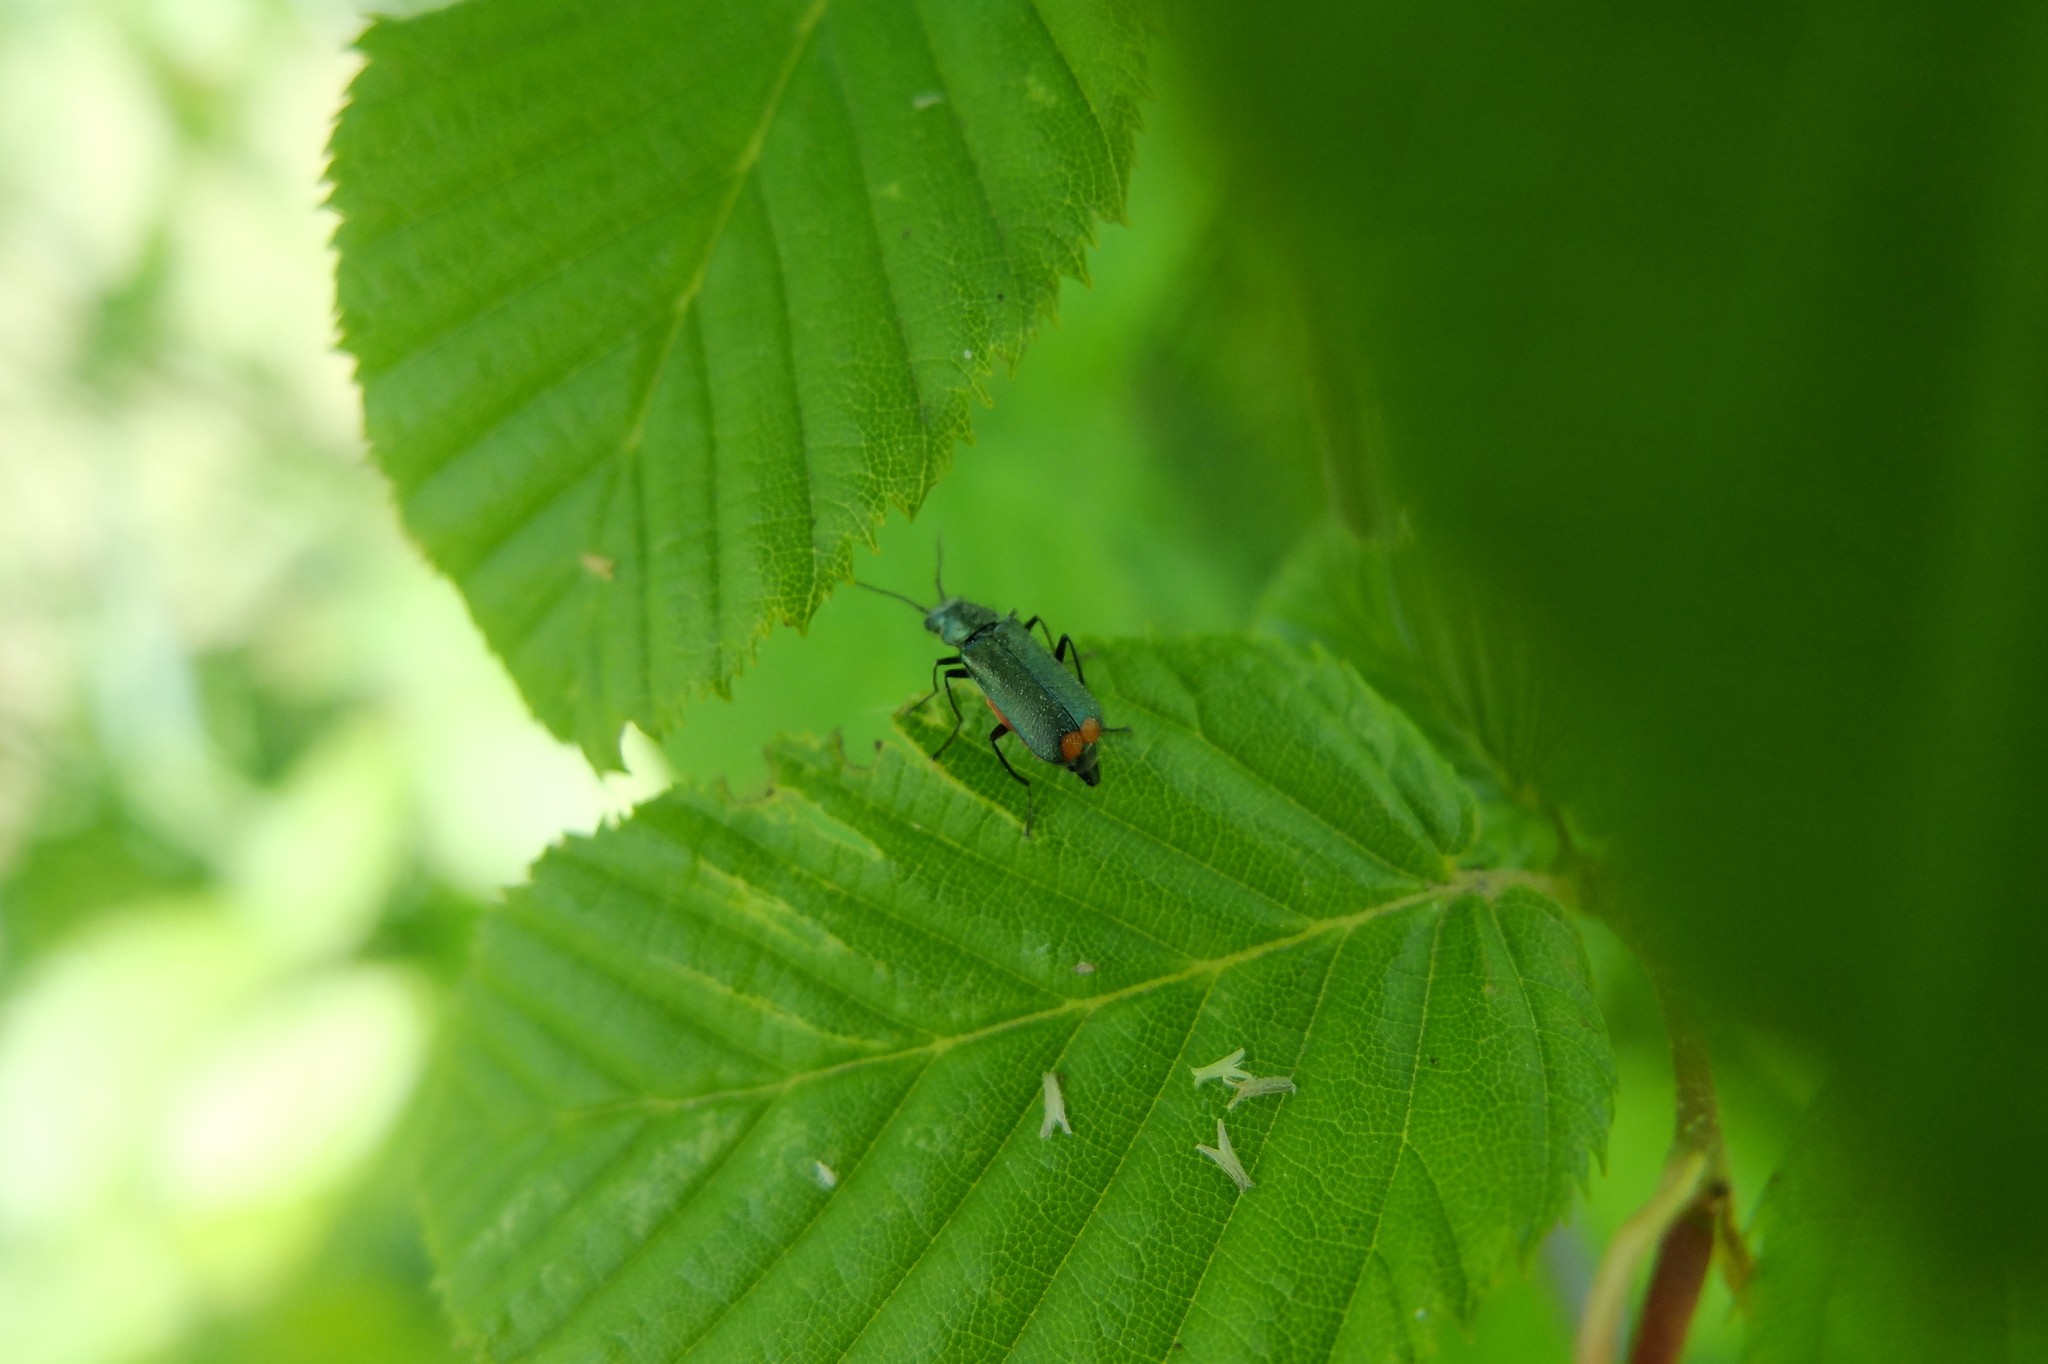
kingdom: Animalia
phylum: Arthropoda
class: Insecta
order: Coleoptera
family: Melyridae
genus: Malachius
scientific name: Malachius bipustulatus
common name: Malachite beetle
